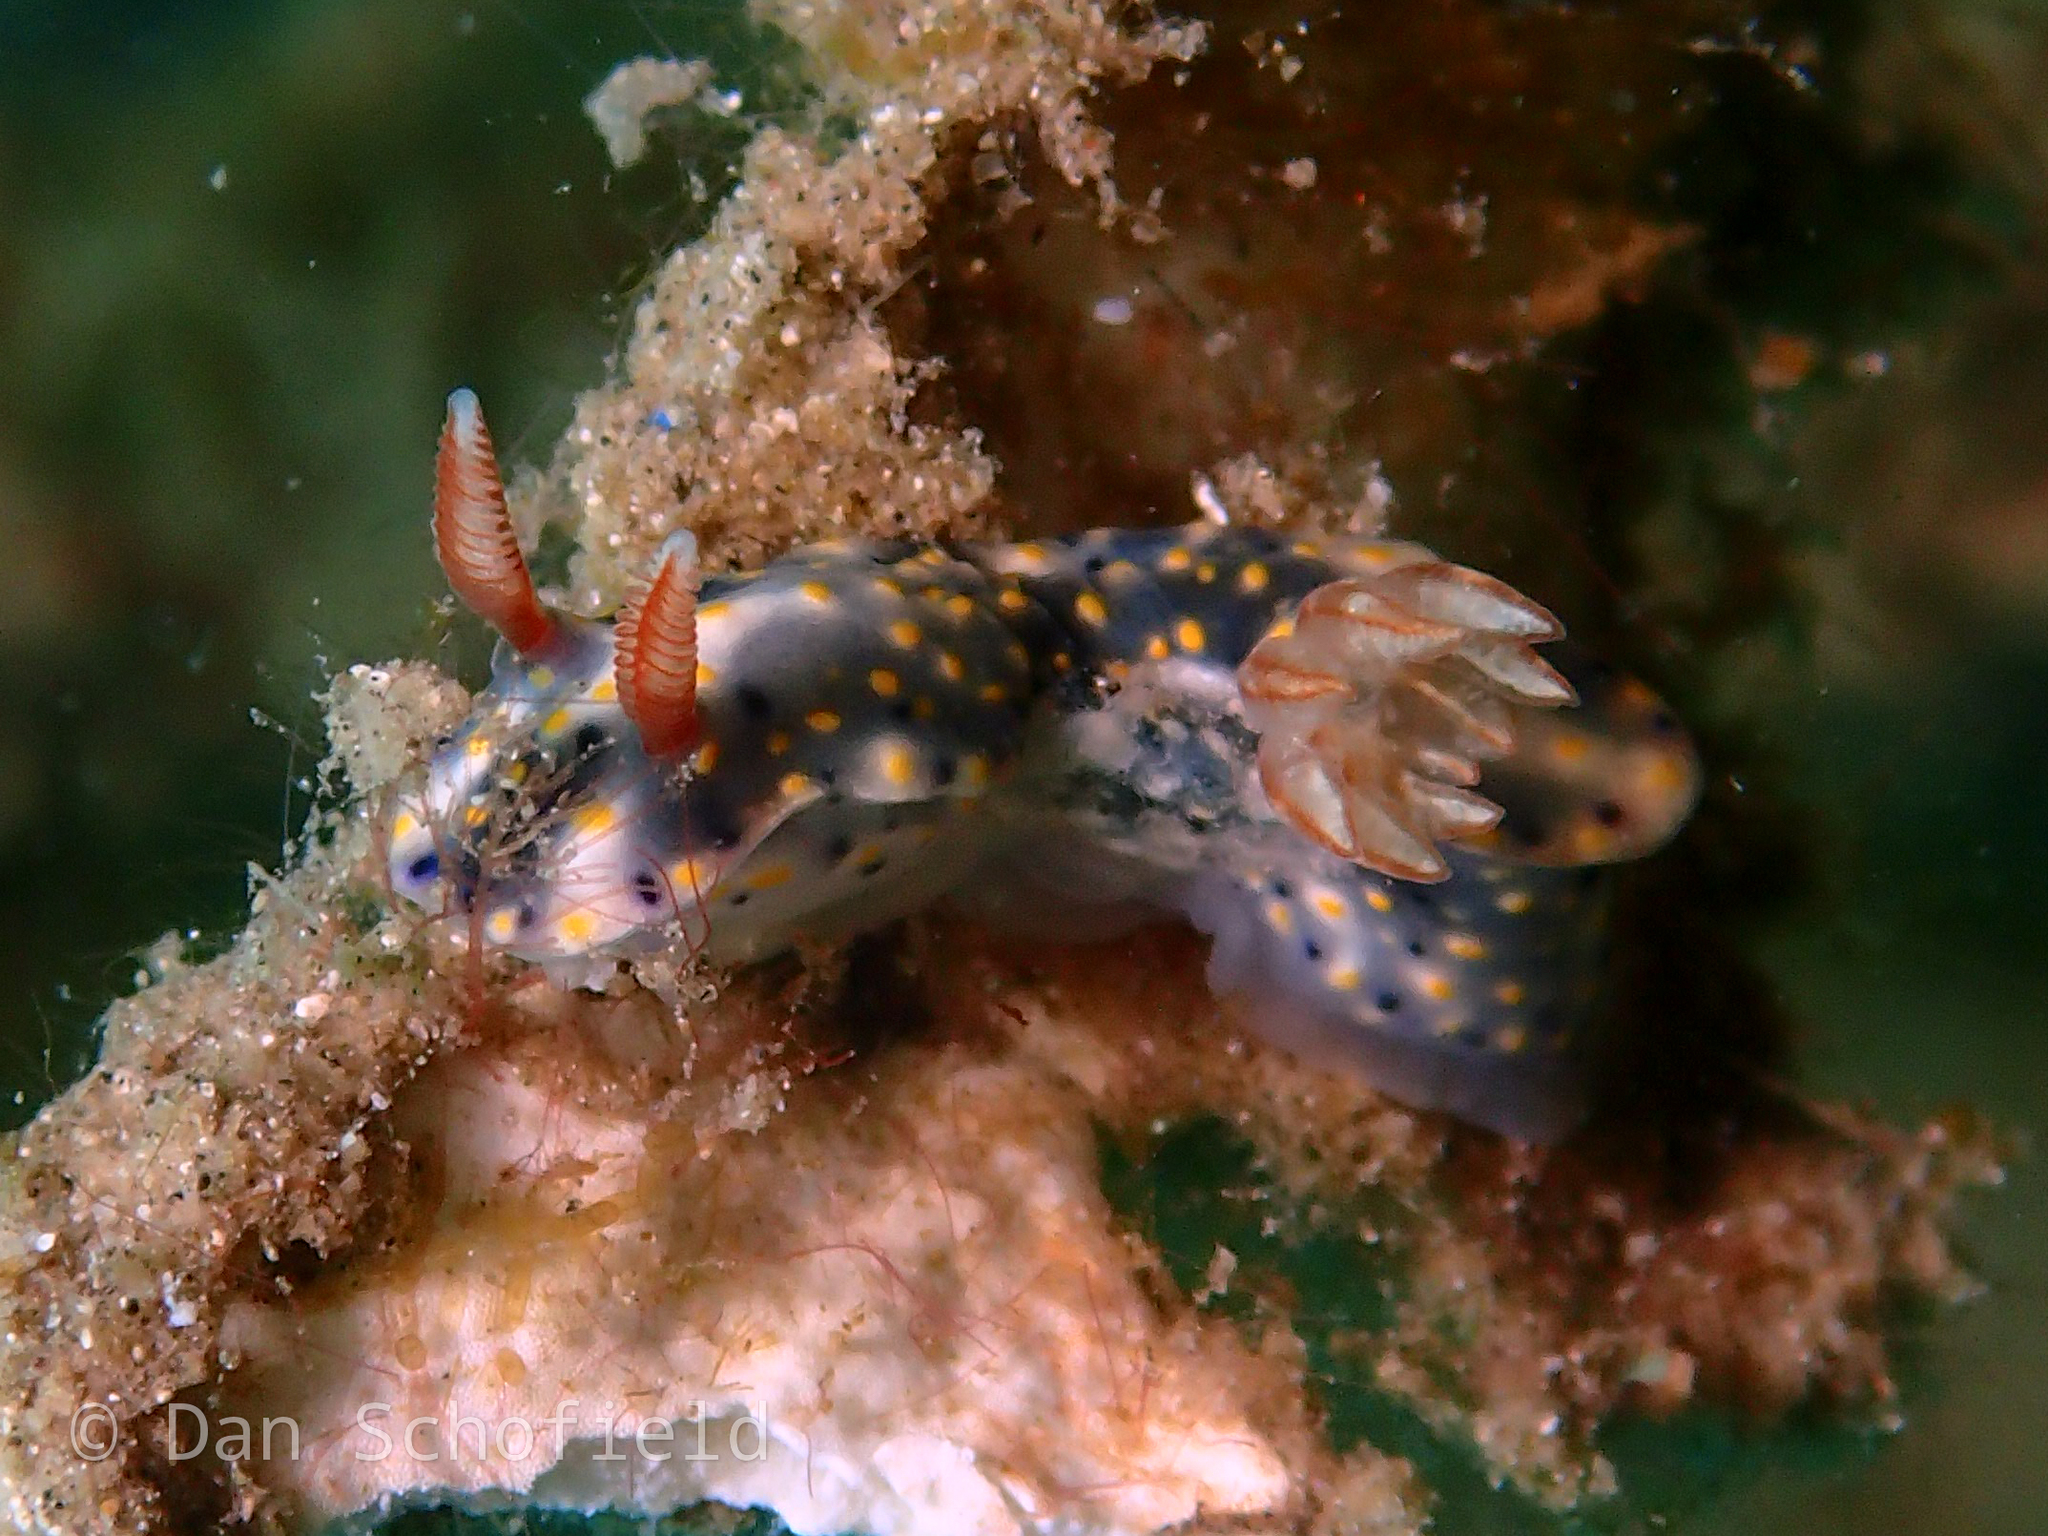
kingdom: Animalia
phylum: Mollusca
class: Gastropoda
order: Nudibranchia
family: Chromodorididae
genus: Hypselodoris
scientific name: Hypselodoris roo
